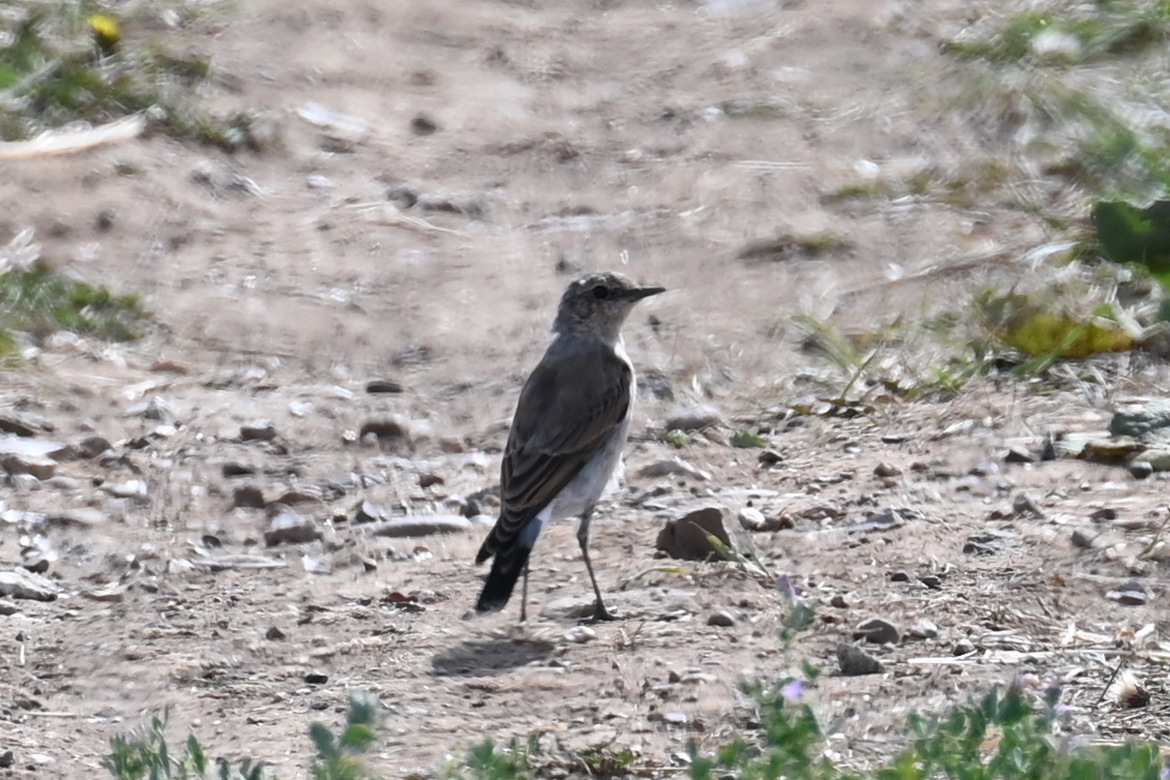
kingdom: Animalia
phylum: Chordata
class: Aves
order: Passeriformes
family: Muscicapidae
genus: Oenanthe
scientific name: Oenanthe oenanthe
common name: Northern wheatear
